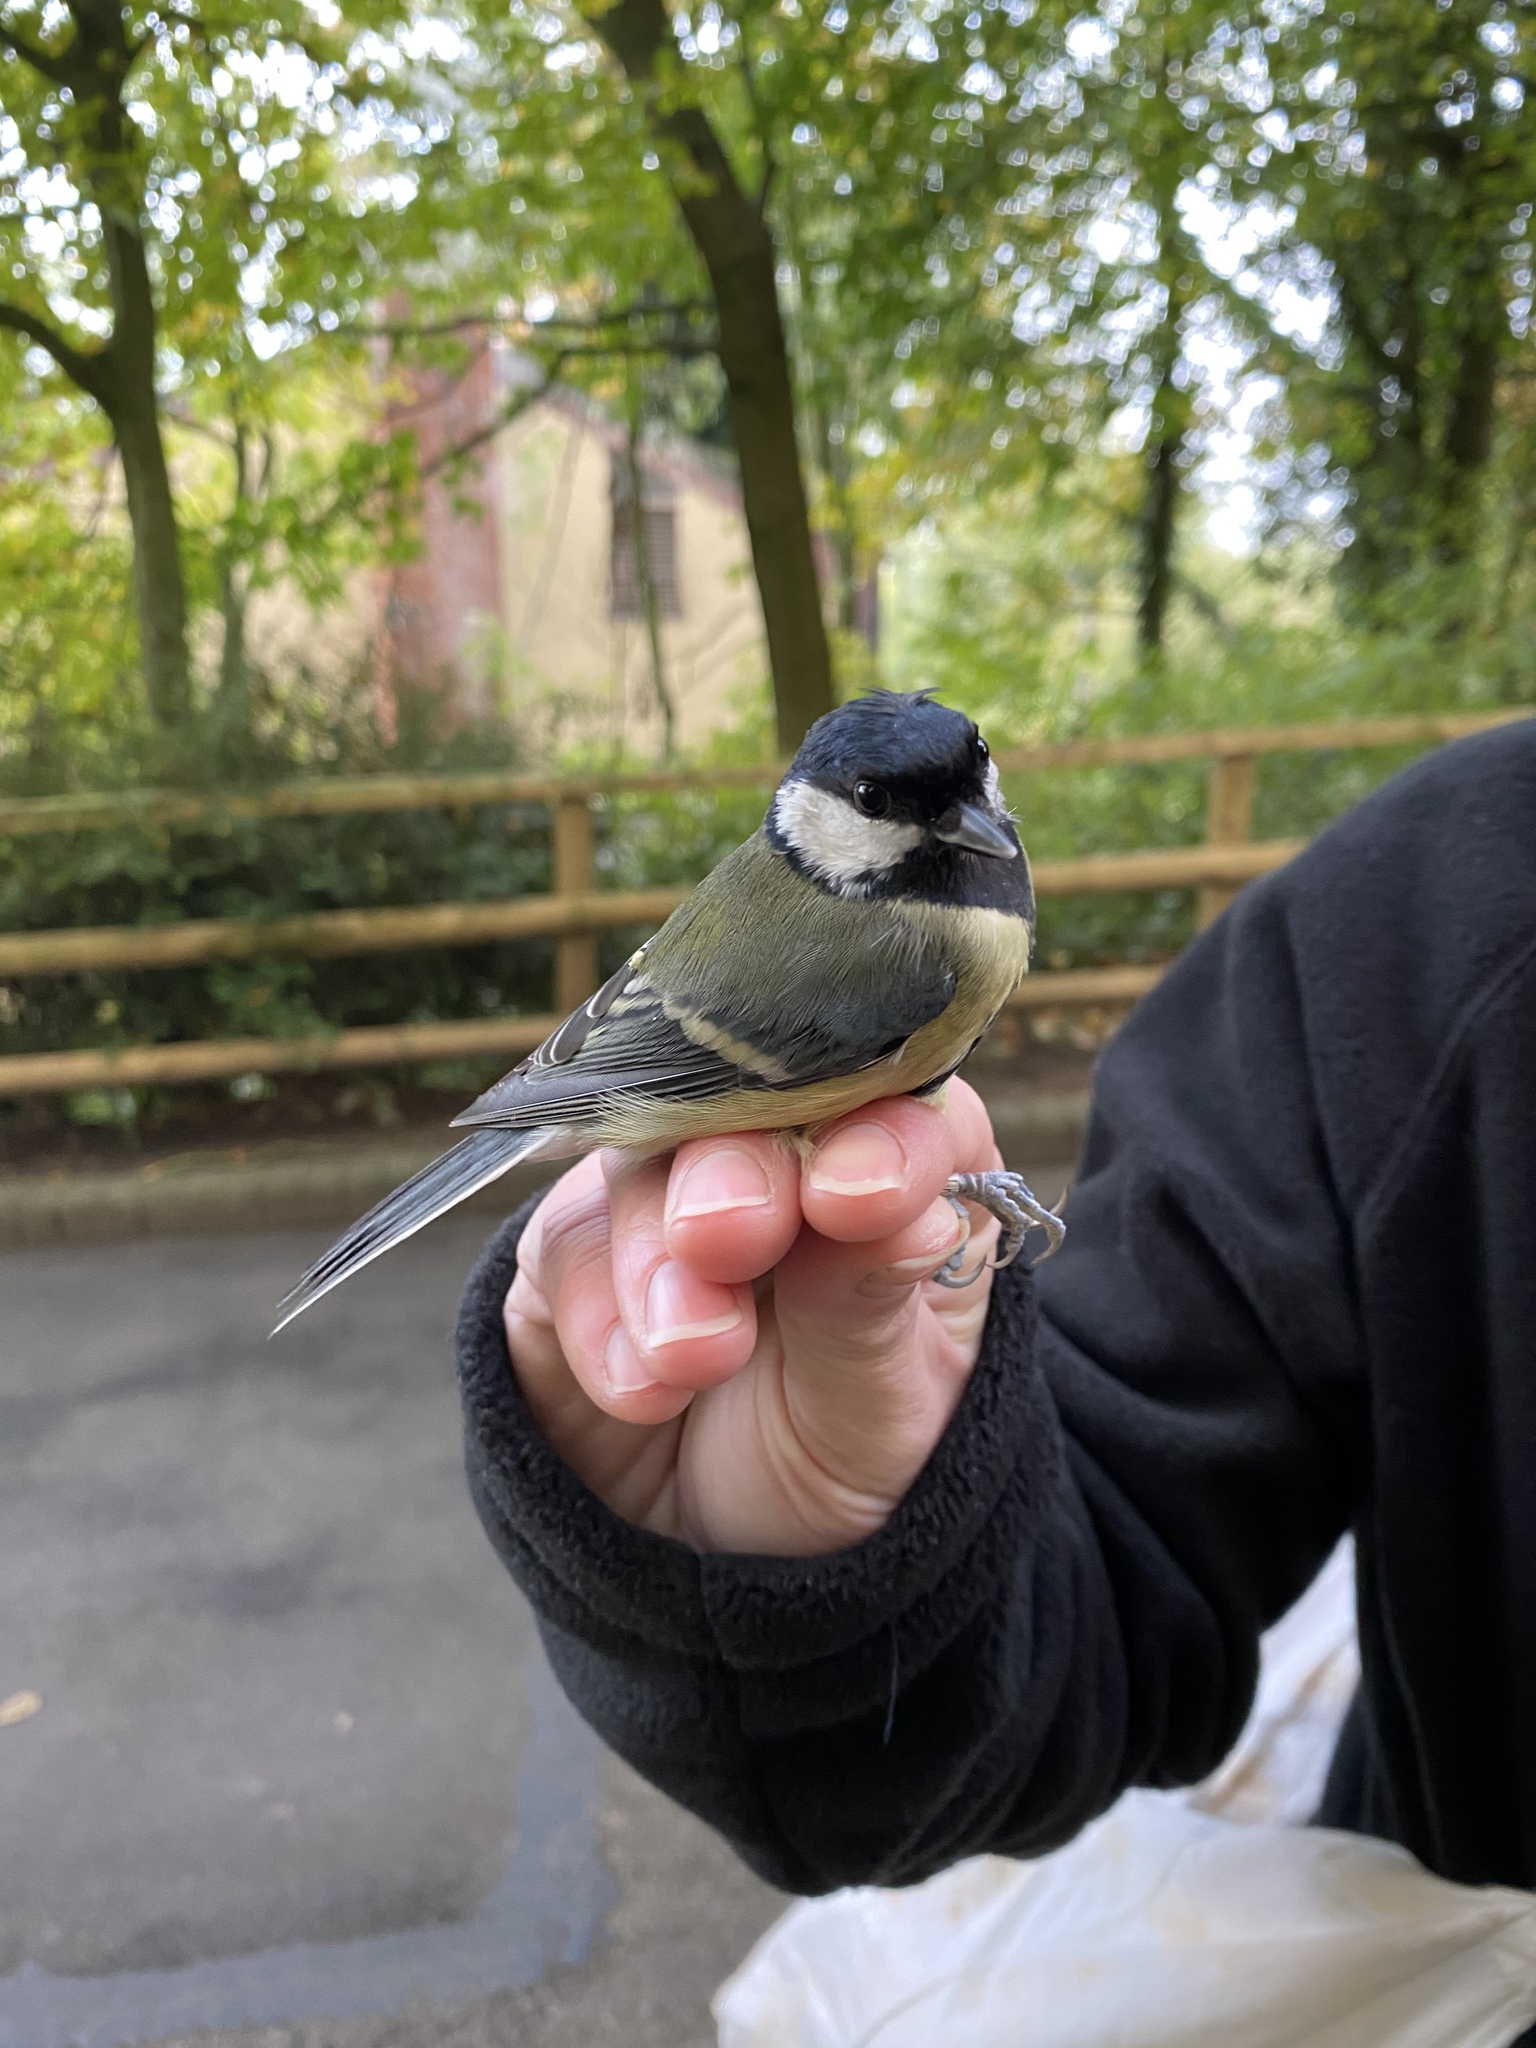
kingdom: Animalia
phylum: Chordata
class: Aves
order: Passeriformes
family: Paridae
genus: Parus
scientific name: Parus major
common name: Great tit
